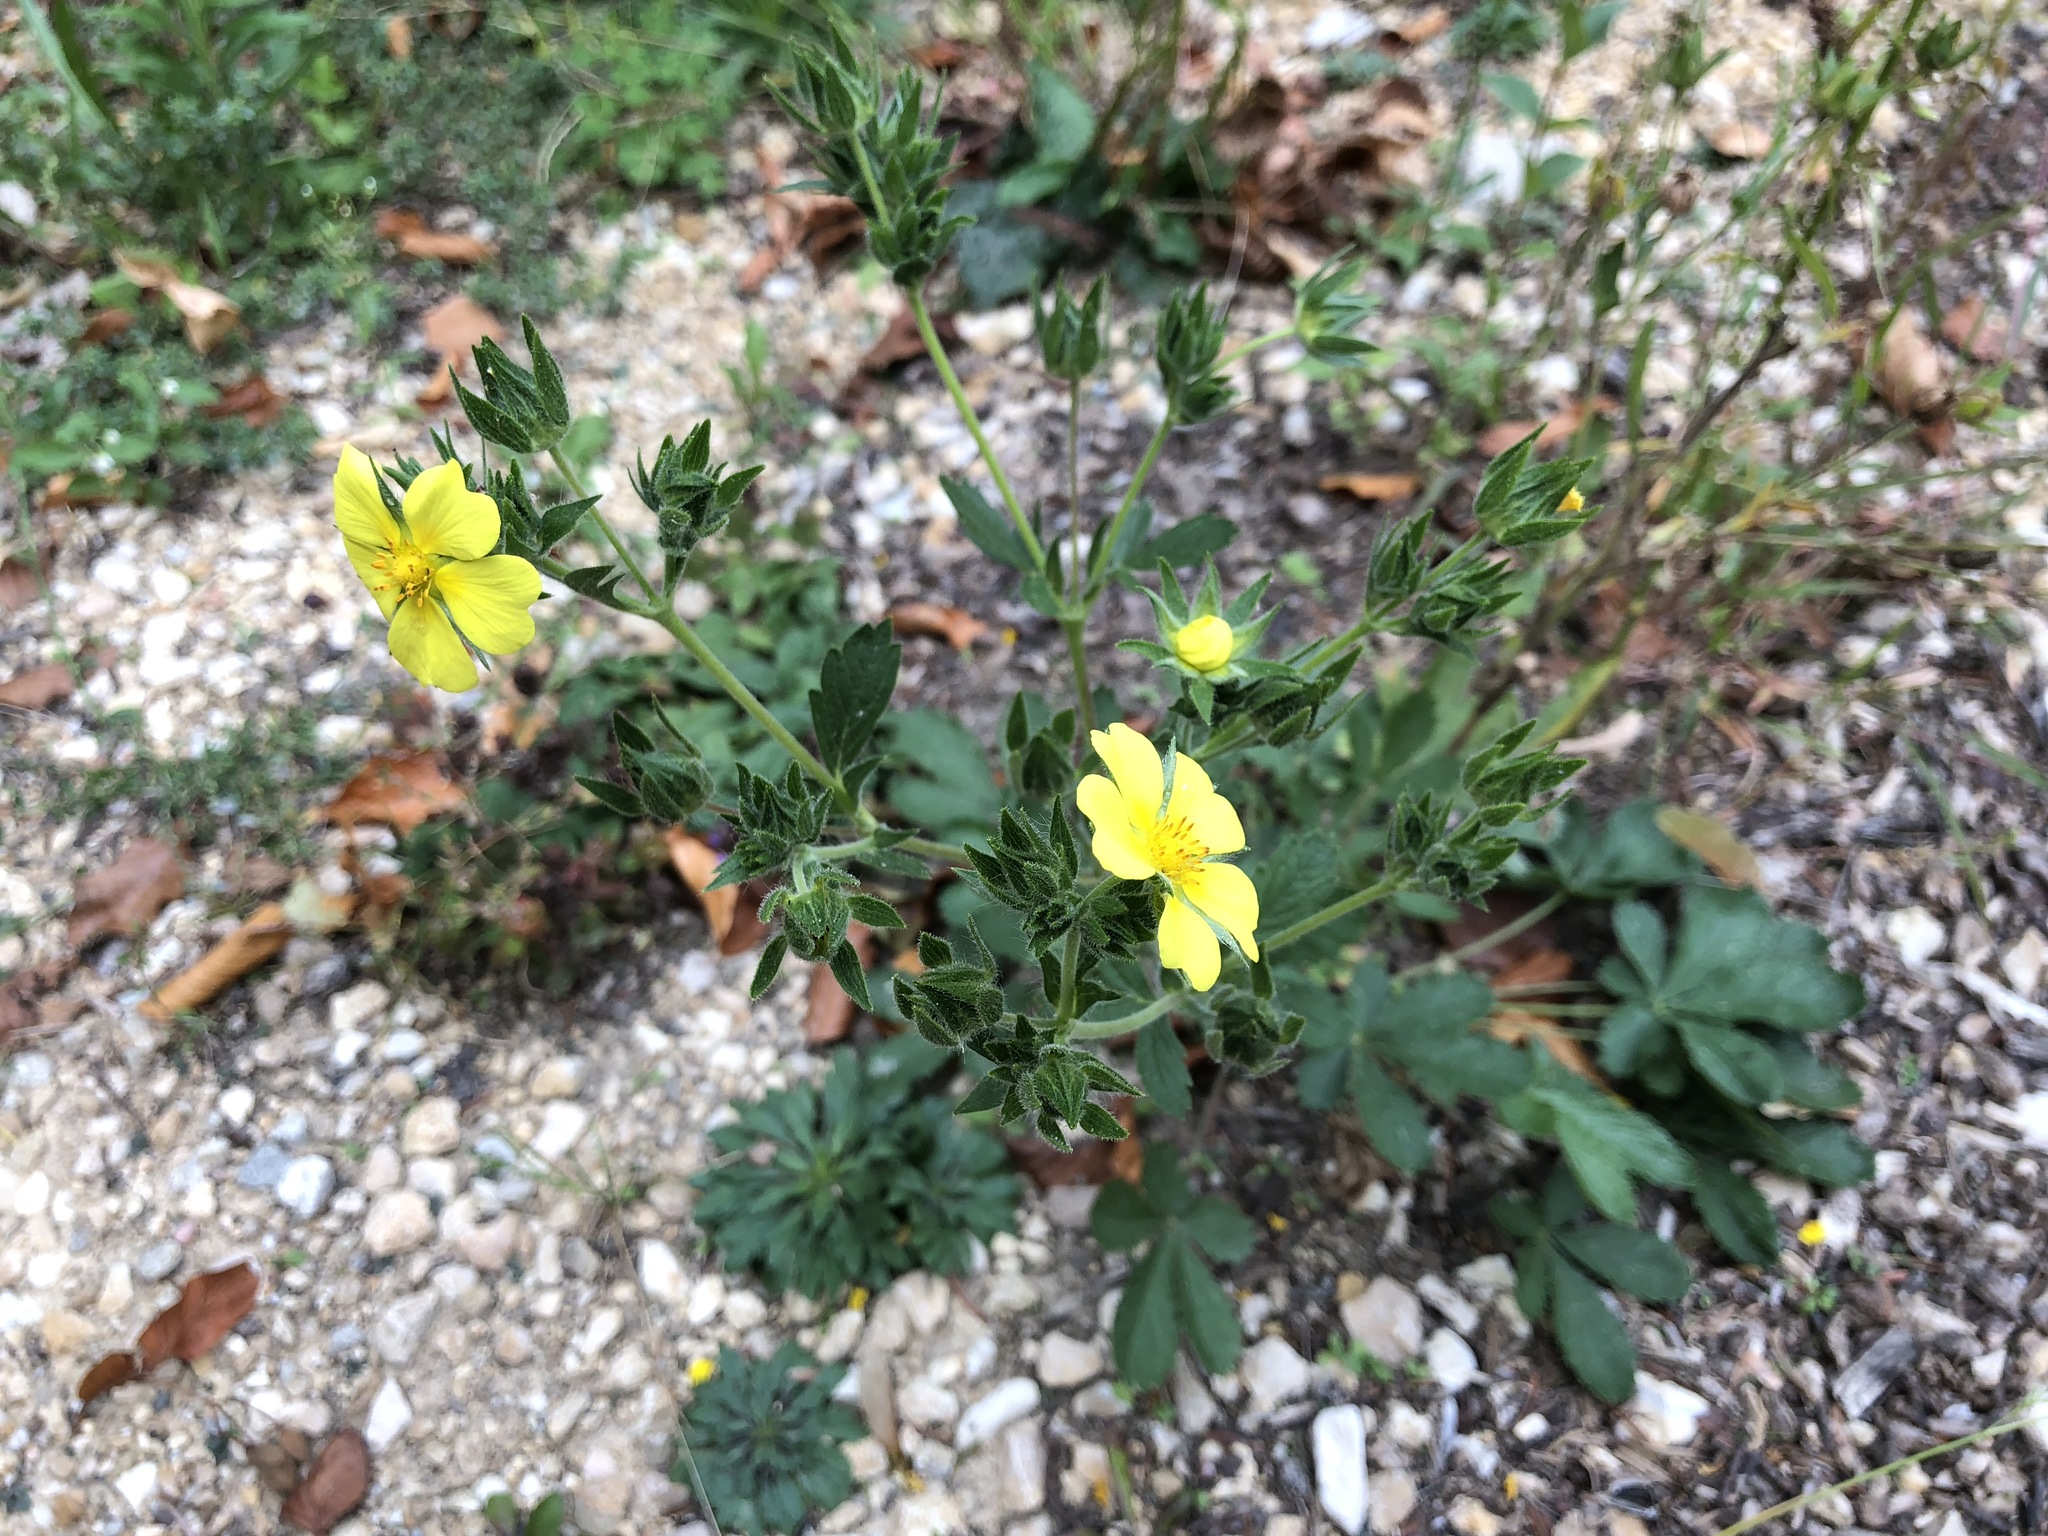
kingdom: Plantae
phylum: Tracheophyta
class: Magnoliopsida
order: Rosales
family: Rosaceae
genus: Potentilla
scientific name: Potentilla recta
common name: Sulphur cinquefoil
